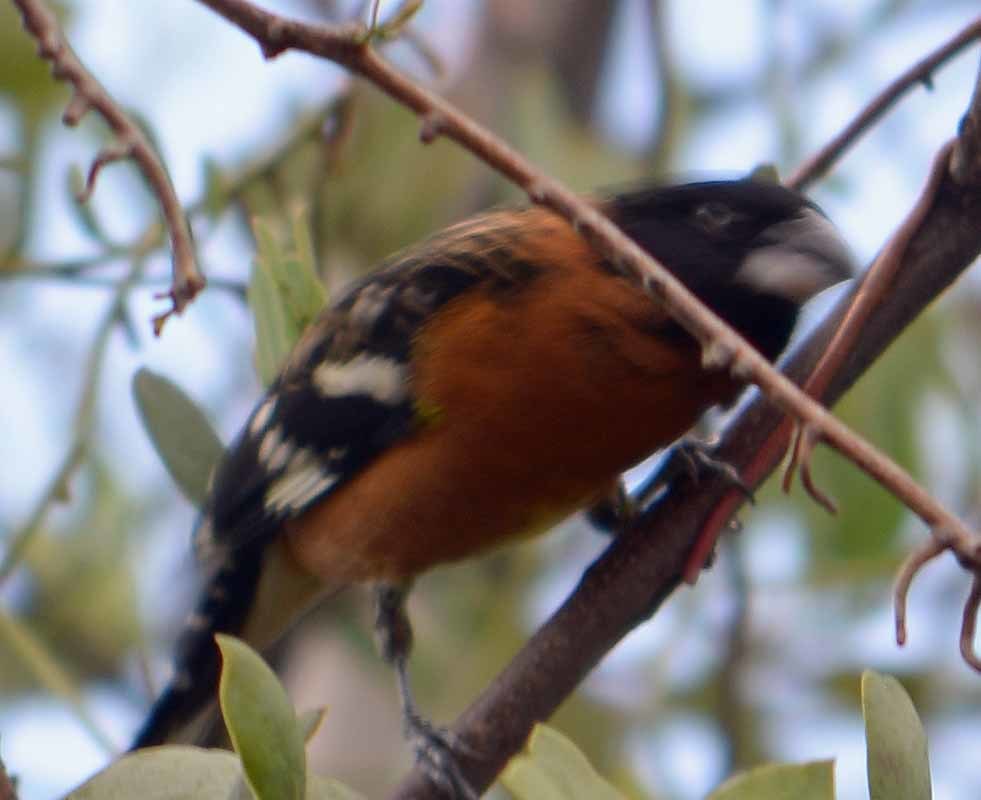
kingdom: Animalia
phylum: Chordata
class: Aves
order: Passeriformes
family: Cardinalidae
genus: Pheucticus
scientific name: Pheucticus melanocephalus
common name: Black-headed grosbeak
